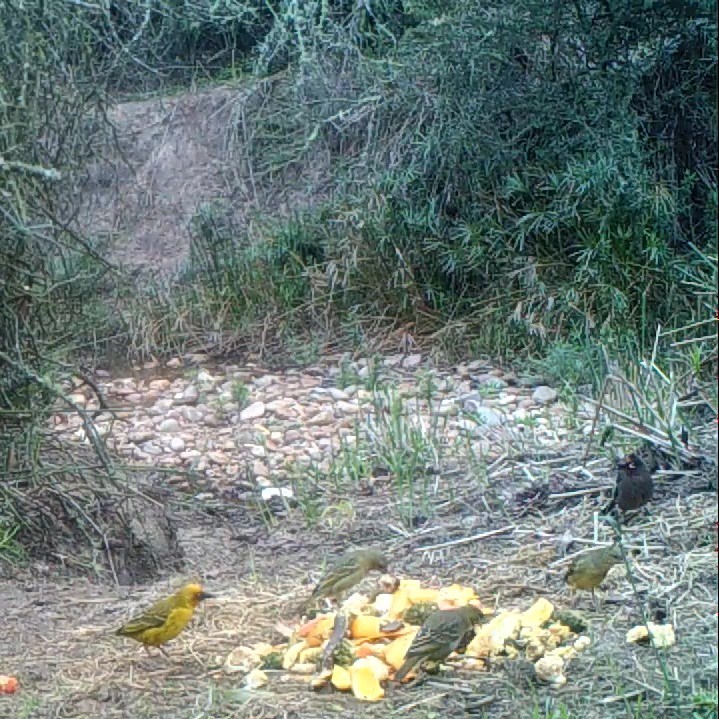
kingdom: Animalia
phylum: Chordata
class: Aves
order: Passeriformes
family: Pycnonotidae
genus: Pycnonotus
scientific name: Pycnonotus capensis
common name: Cape bulbul
